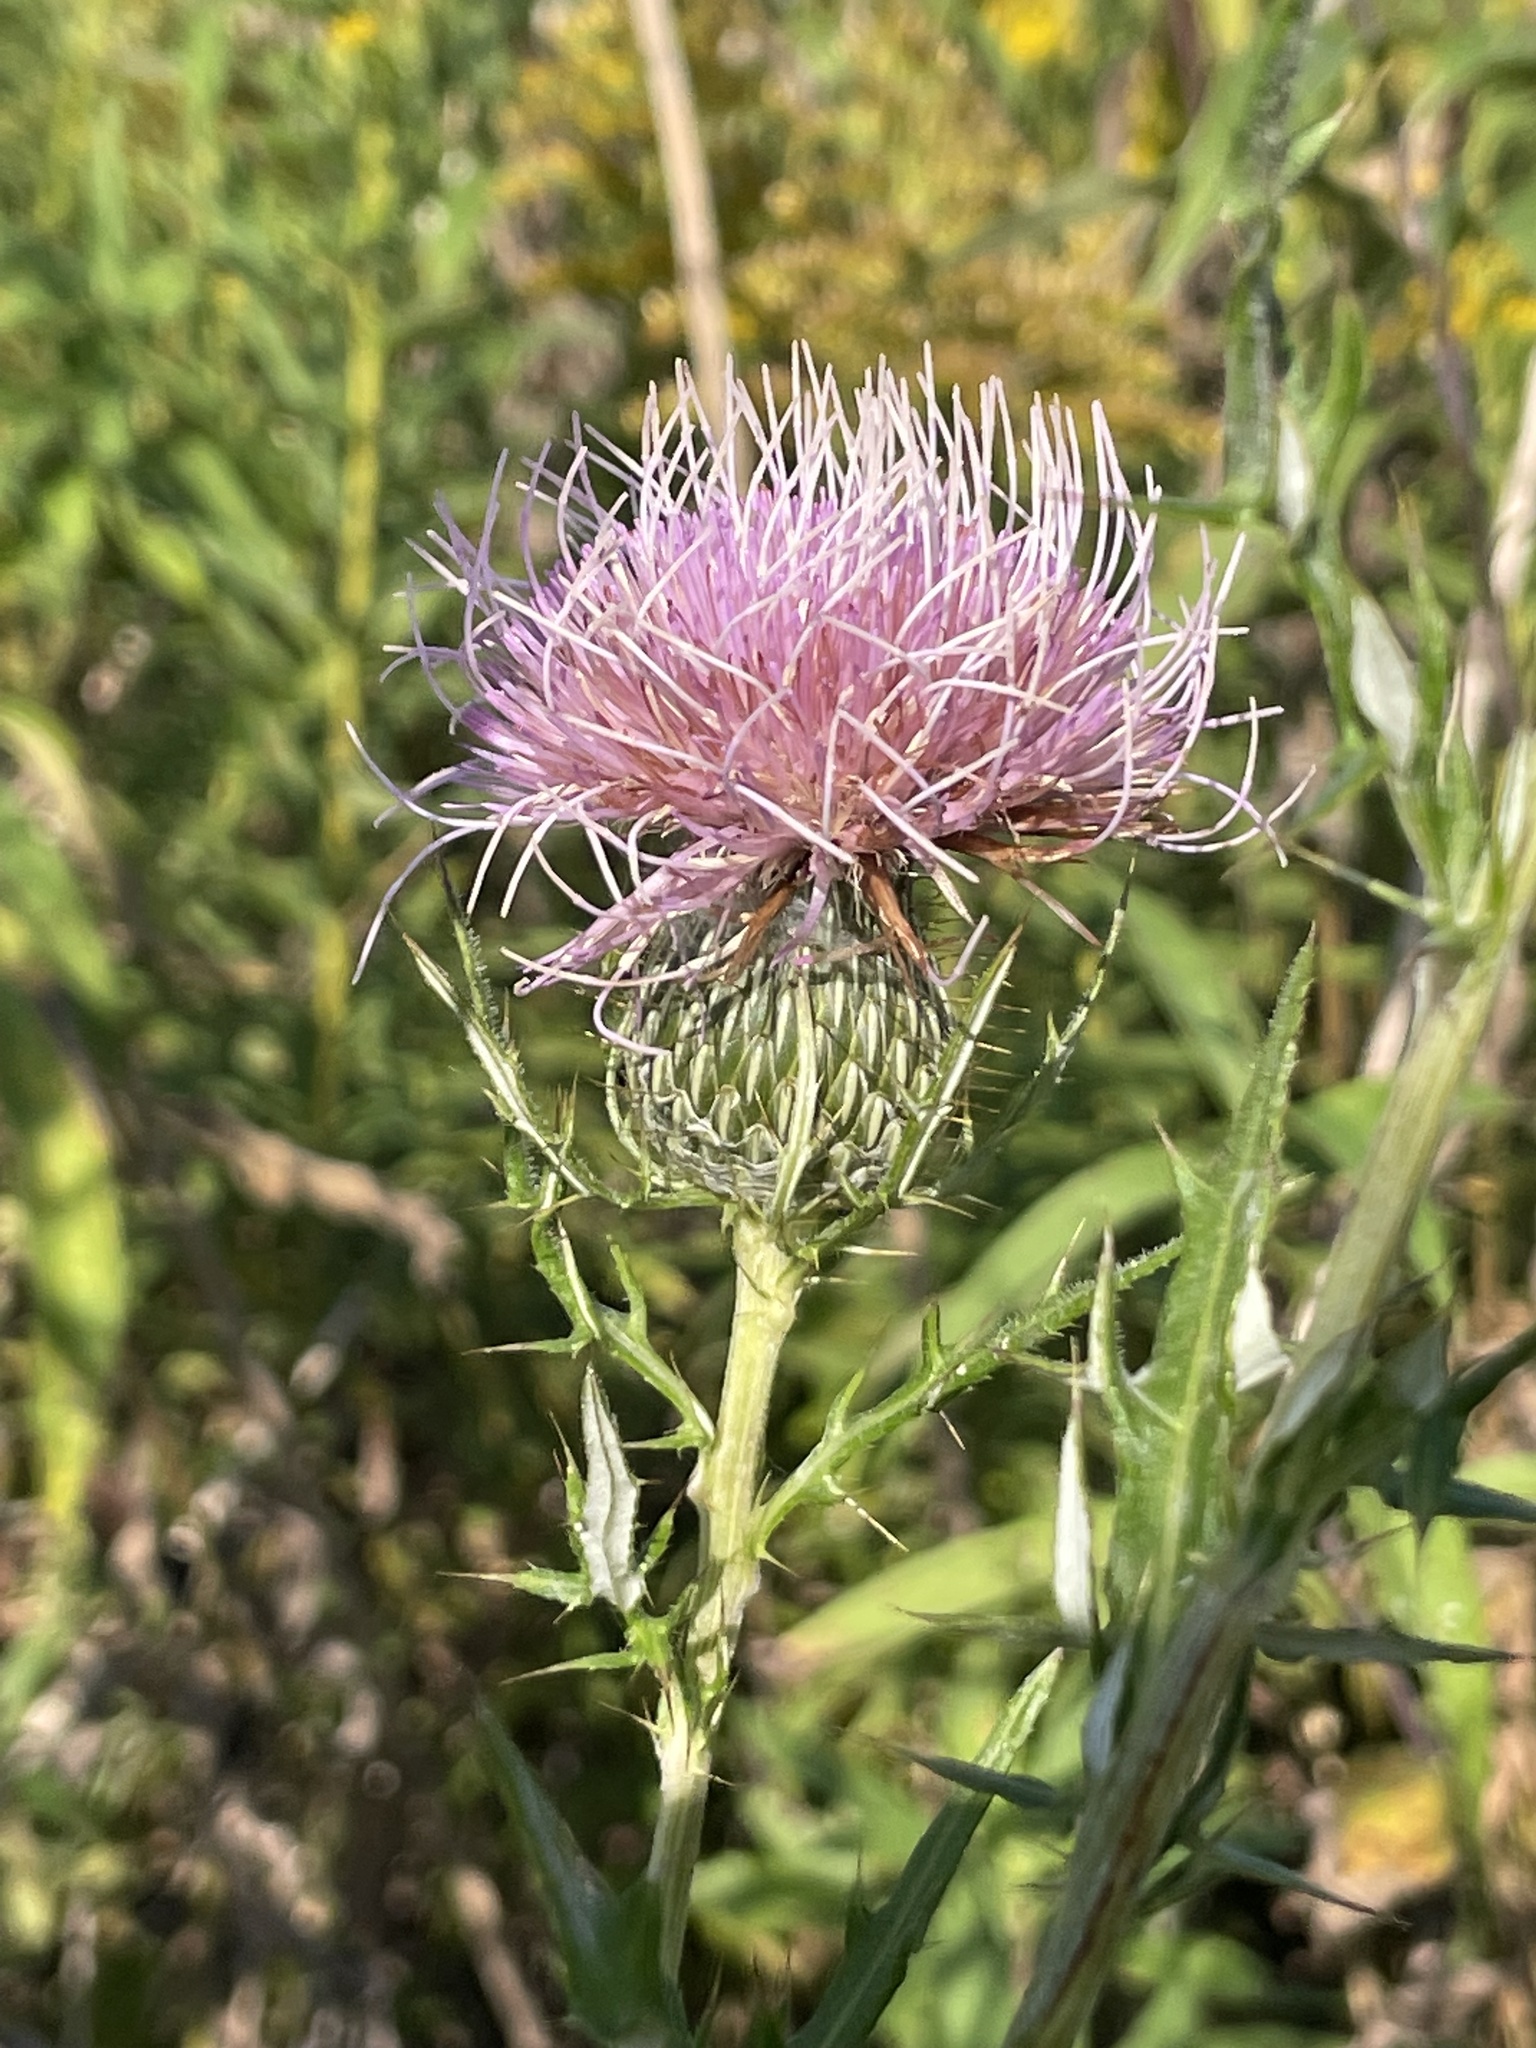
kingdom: Plantae
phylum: Tracheophyta
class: Magnoliopsida
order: Asterales
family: Asteraceae
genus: Cirsium
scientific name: Cirsium discolor
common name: Field thistle
